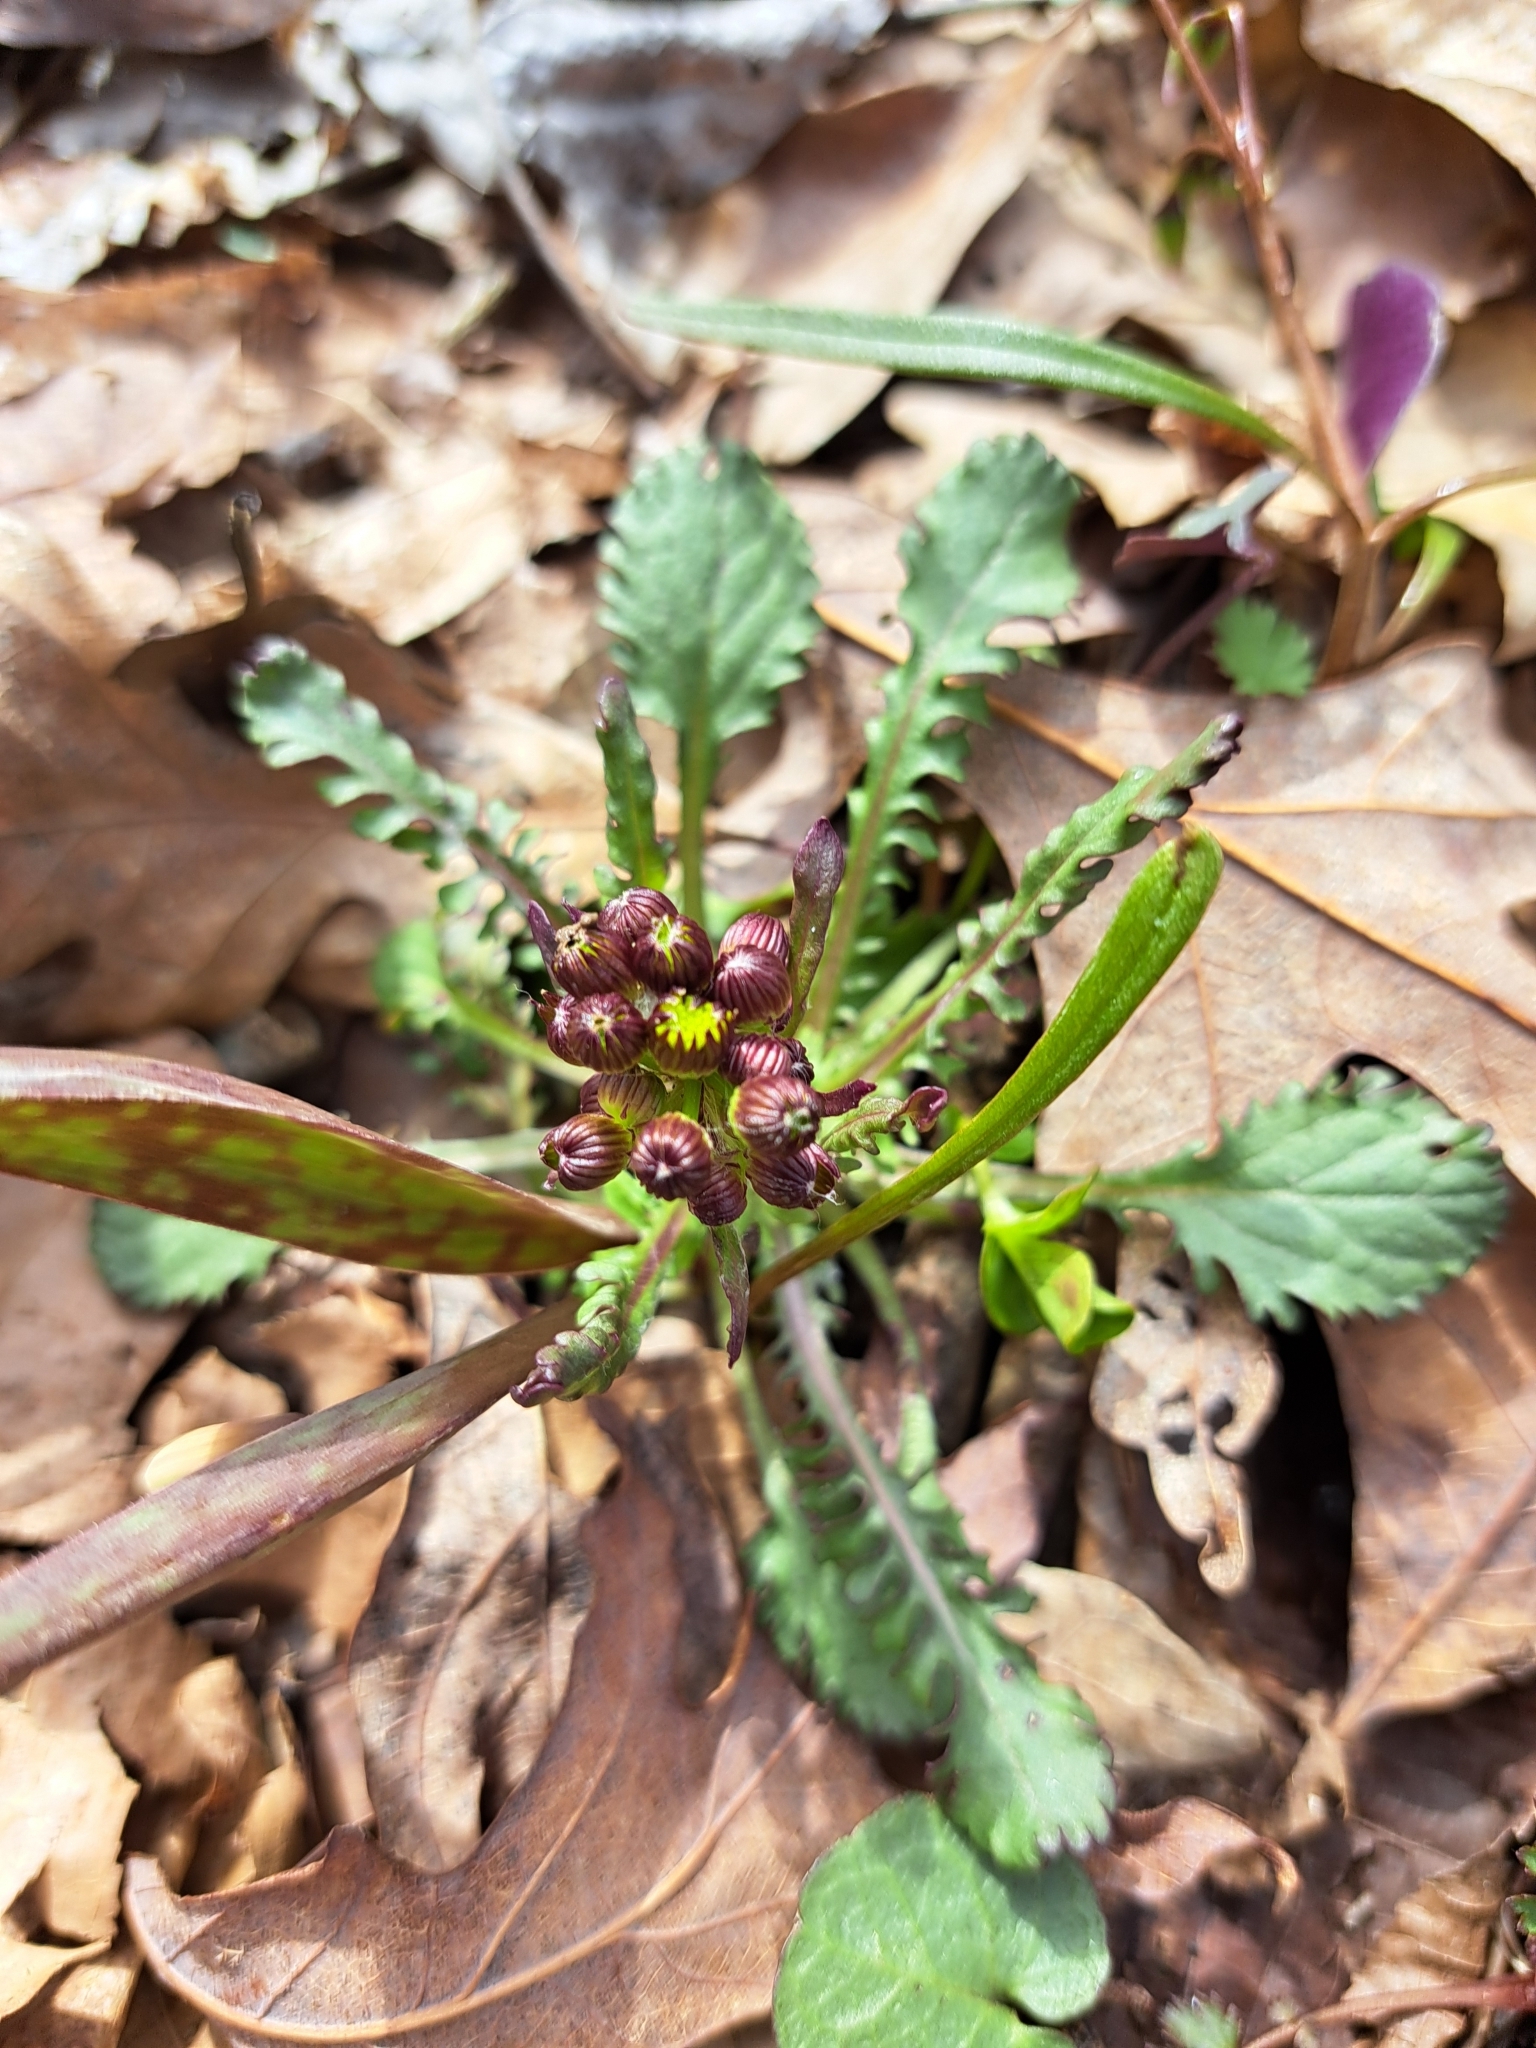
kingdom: Plantae
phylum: Tracheophyta
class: Magnoliopsida
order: Asterales
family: Asteraceae
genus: Packera
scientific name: Packera obovata
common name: Round-leaf ragwort
